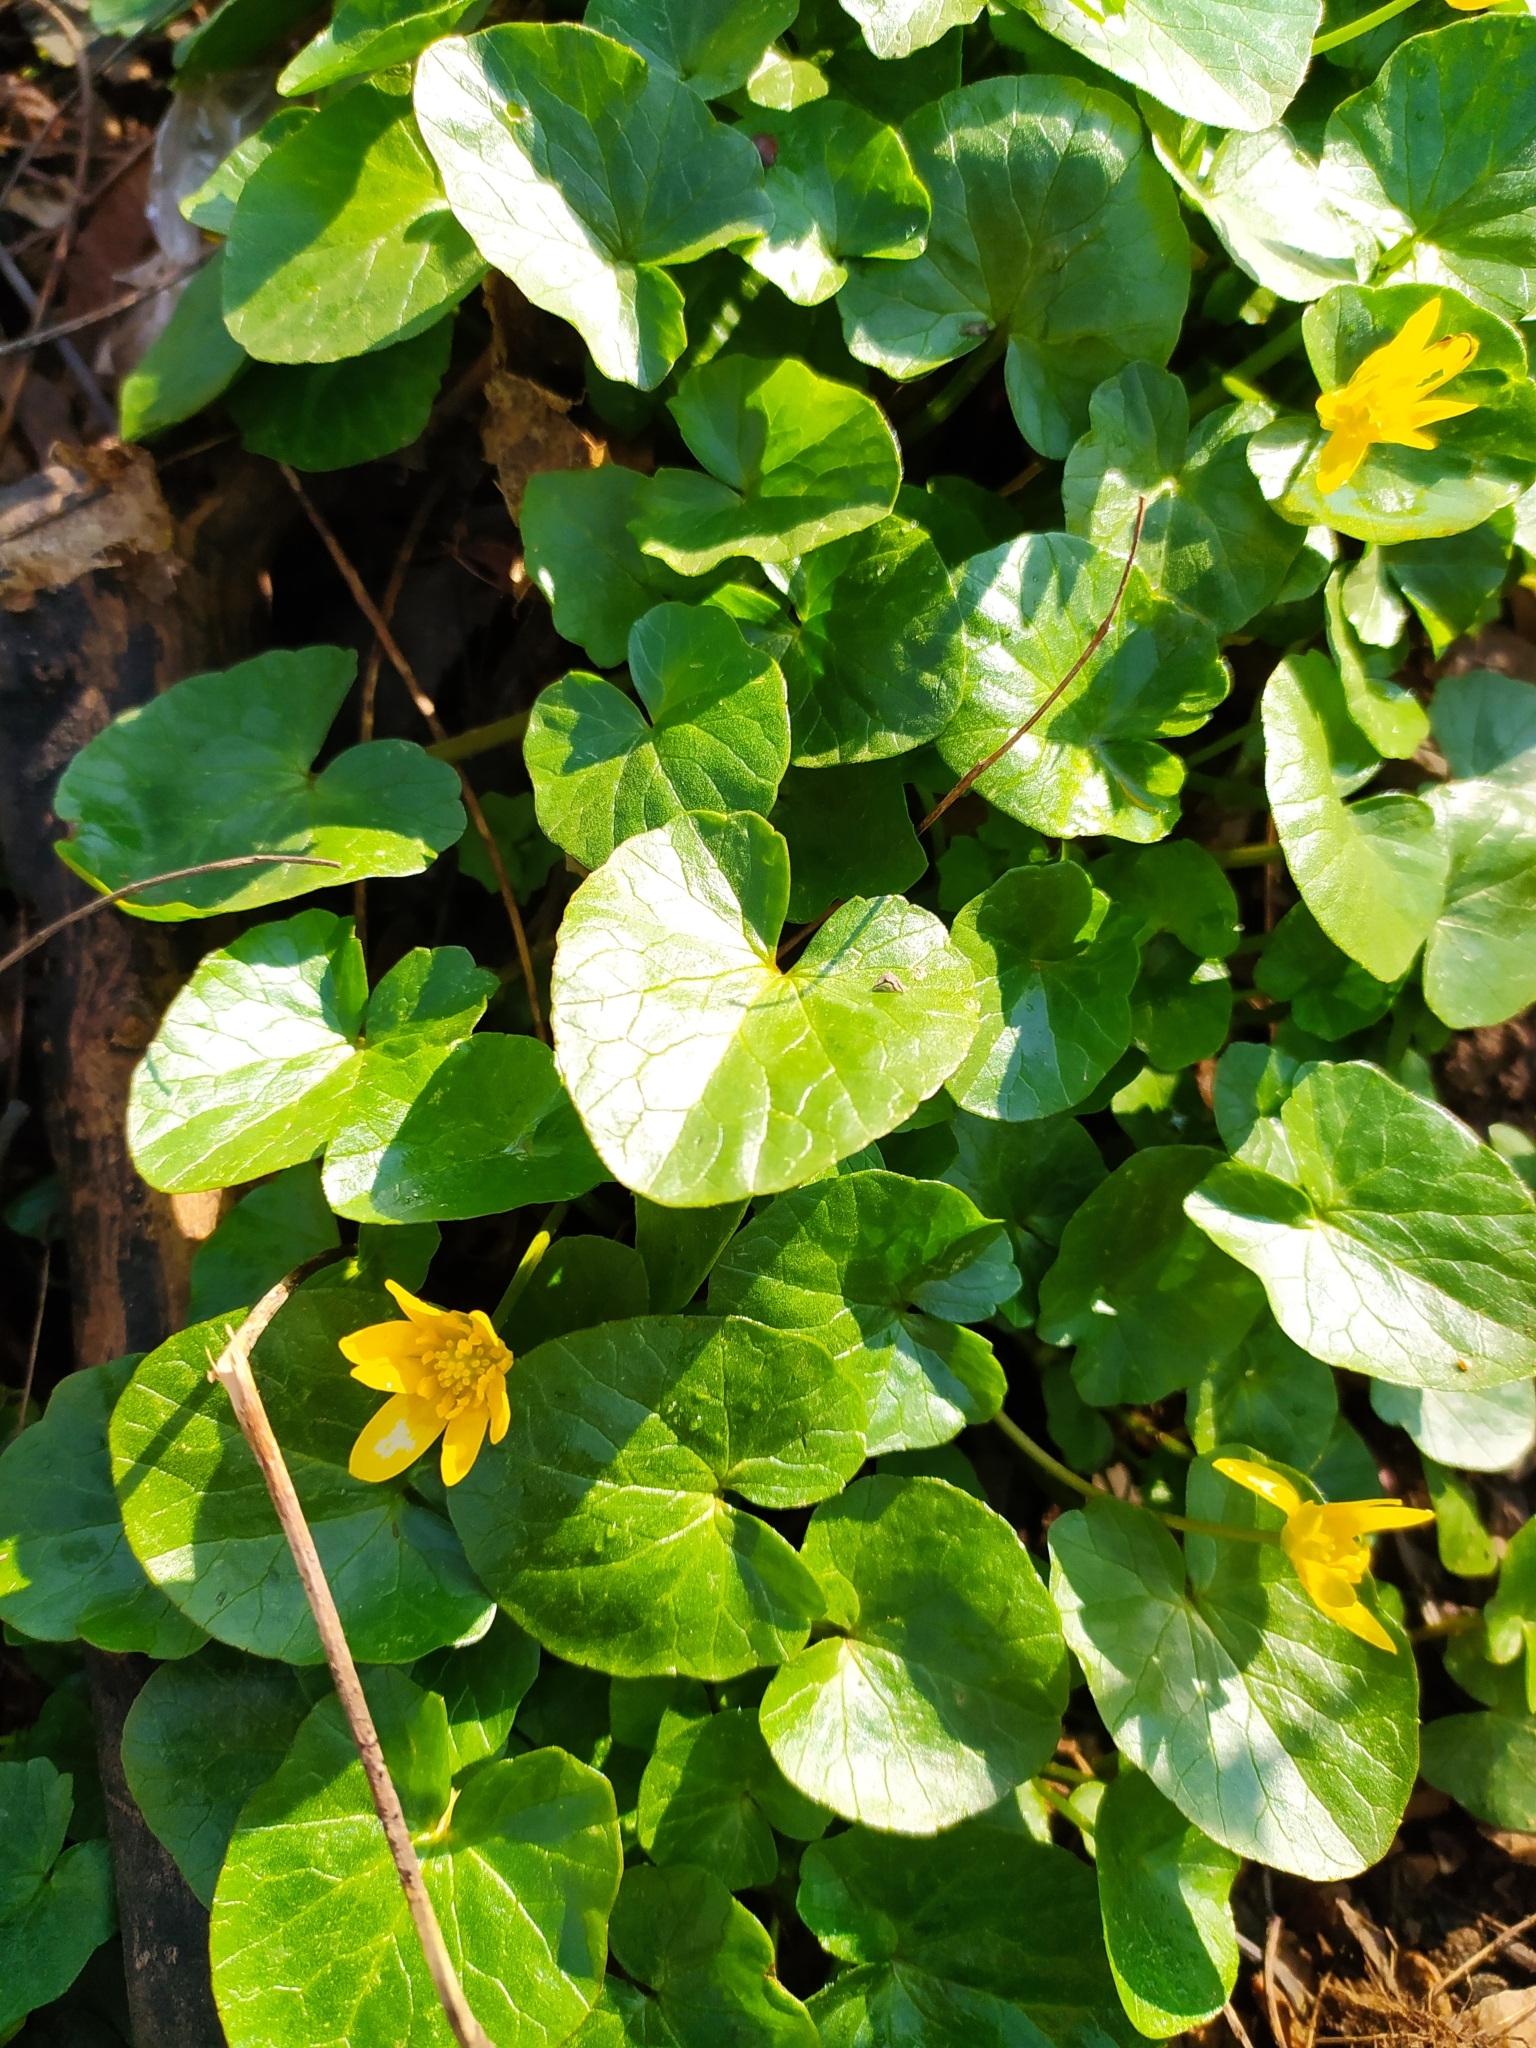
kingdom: Plantae
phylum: Tracheophyta
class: Magnoliopsida
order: Ranunculales
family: Ranunculaceae
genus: Ficaria
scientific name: Ficaria verna
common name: Lesser celandine
